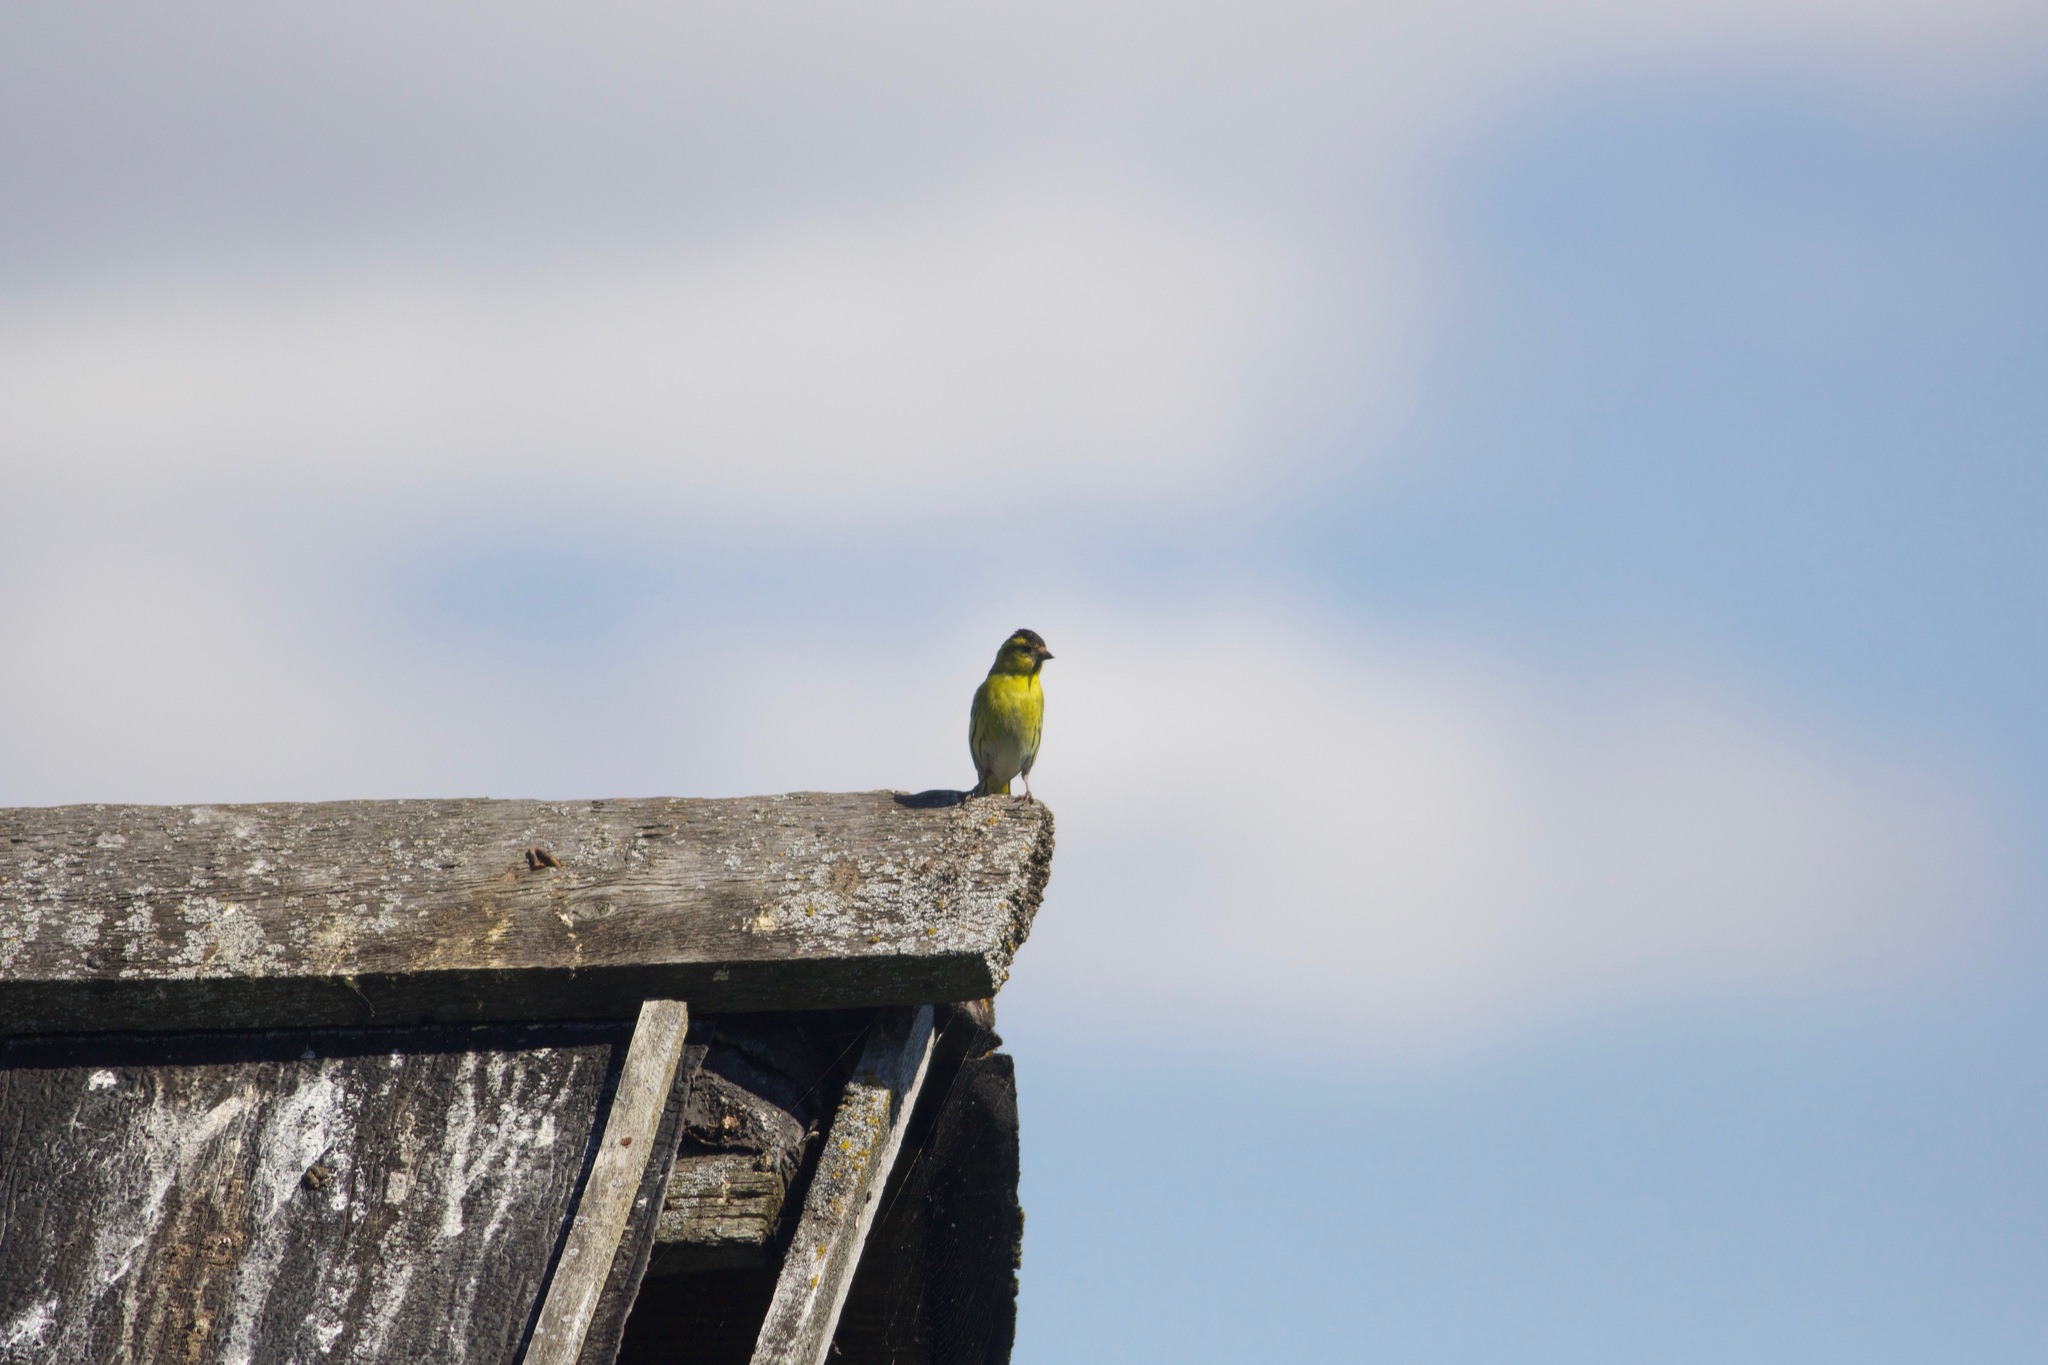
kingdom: Animalia
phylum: Chordata
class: Aves
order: Passeriformes
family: Fringillidae
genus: Spinus
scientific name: Spinus spinus
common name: Eurasian siskin
